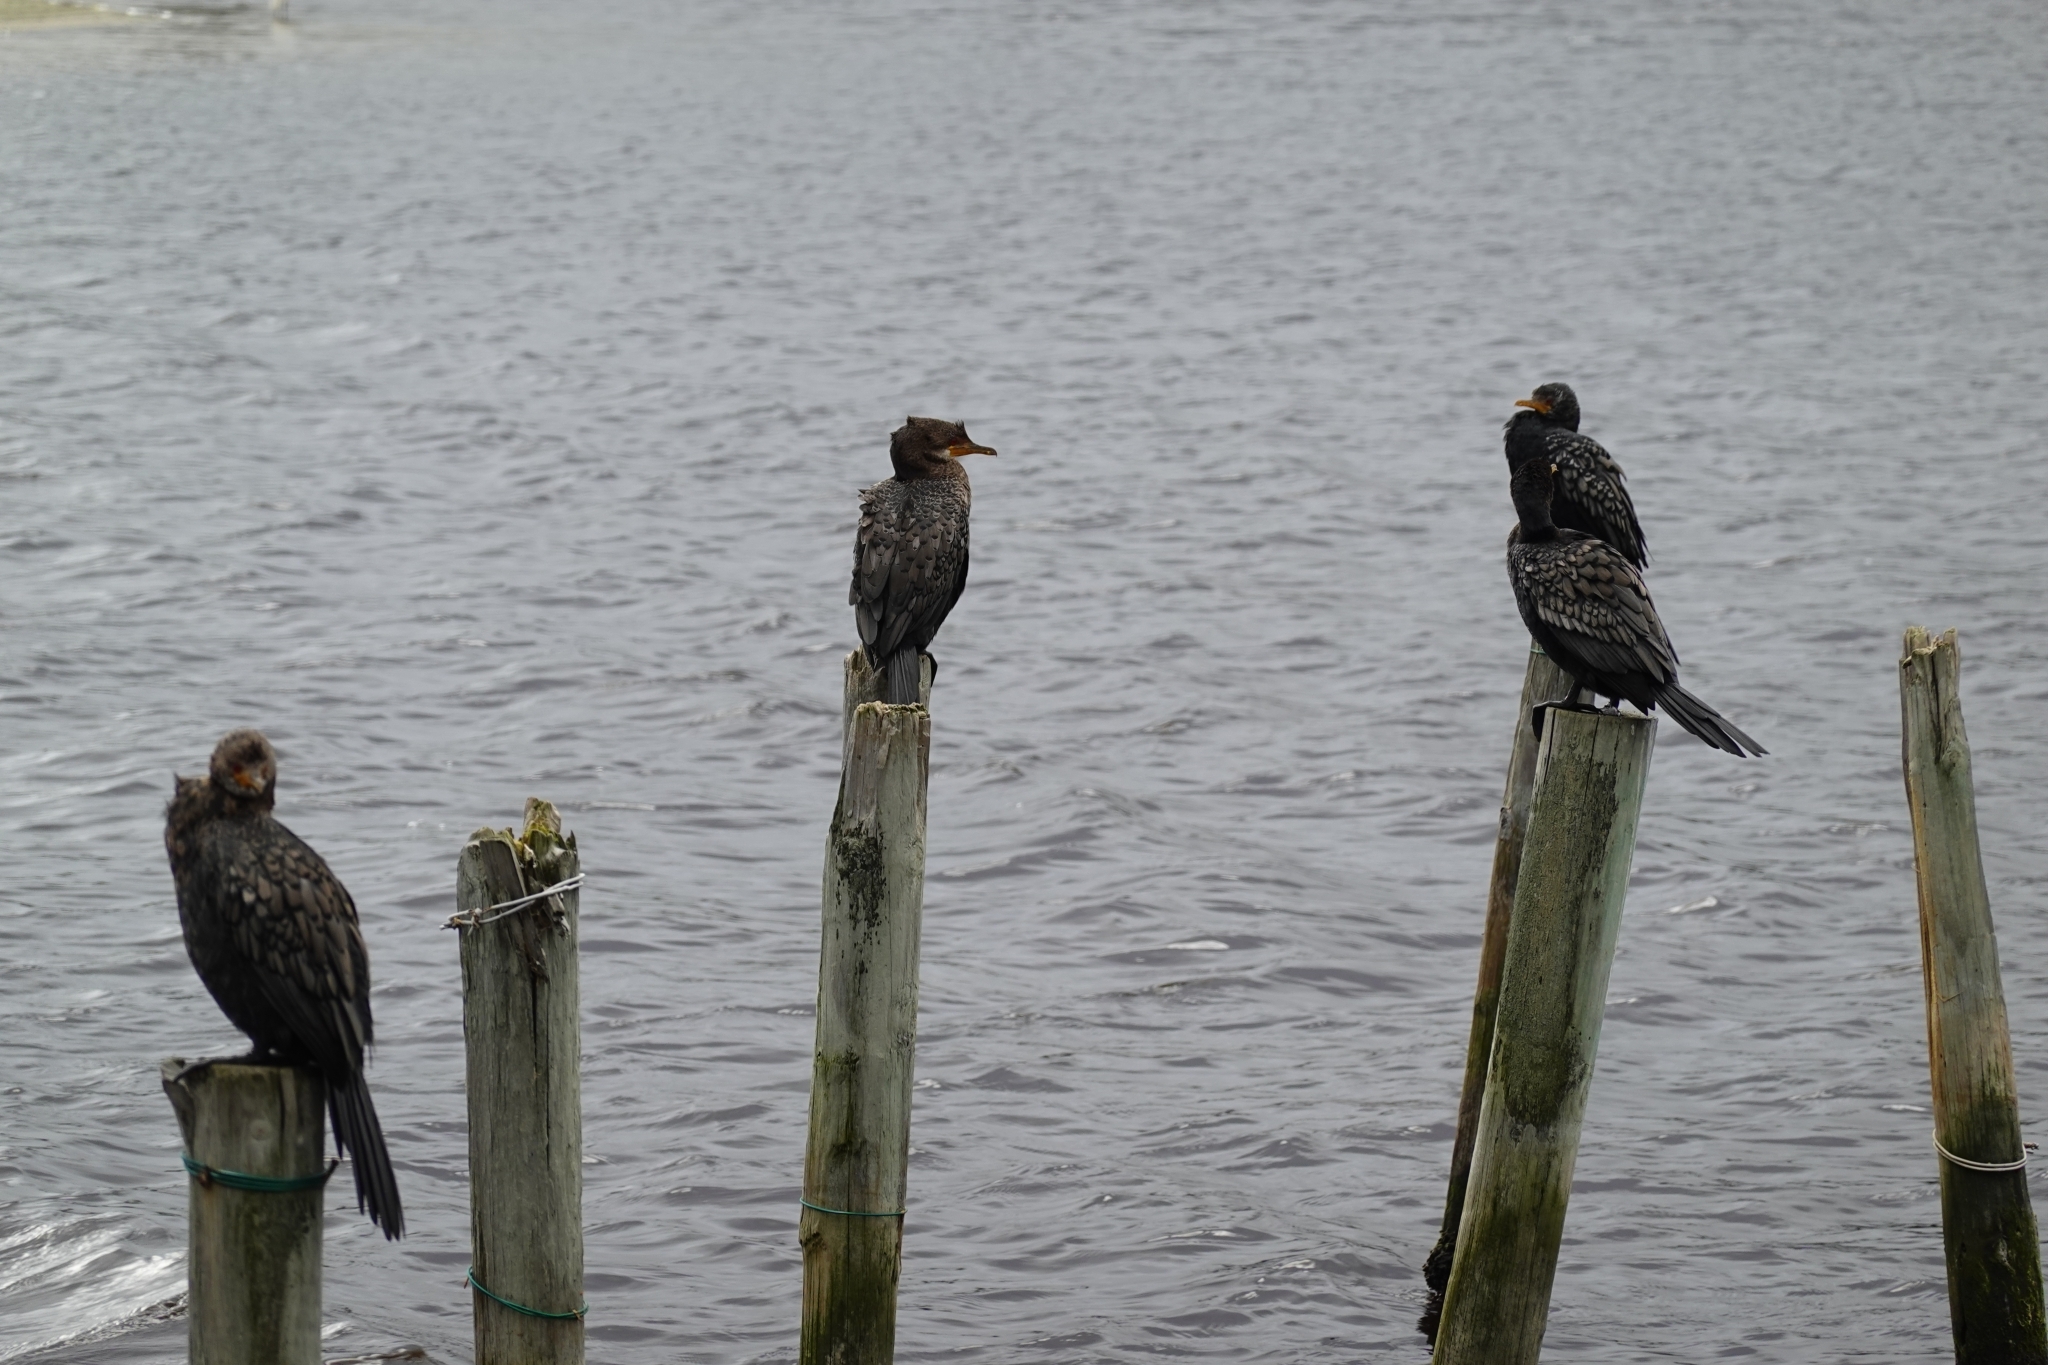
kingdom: Animalia
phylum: Chordata
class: Aves
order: Suliformes
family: Phalacrocoracidae
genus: Microcarbo
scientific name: Microcarbo africanus
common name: Long-tailed cormorant
